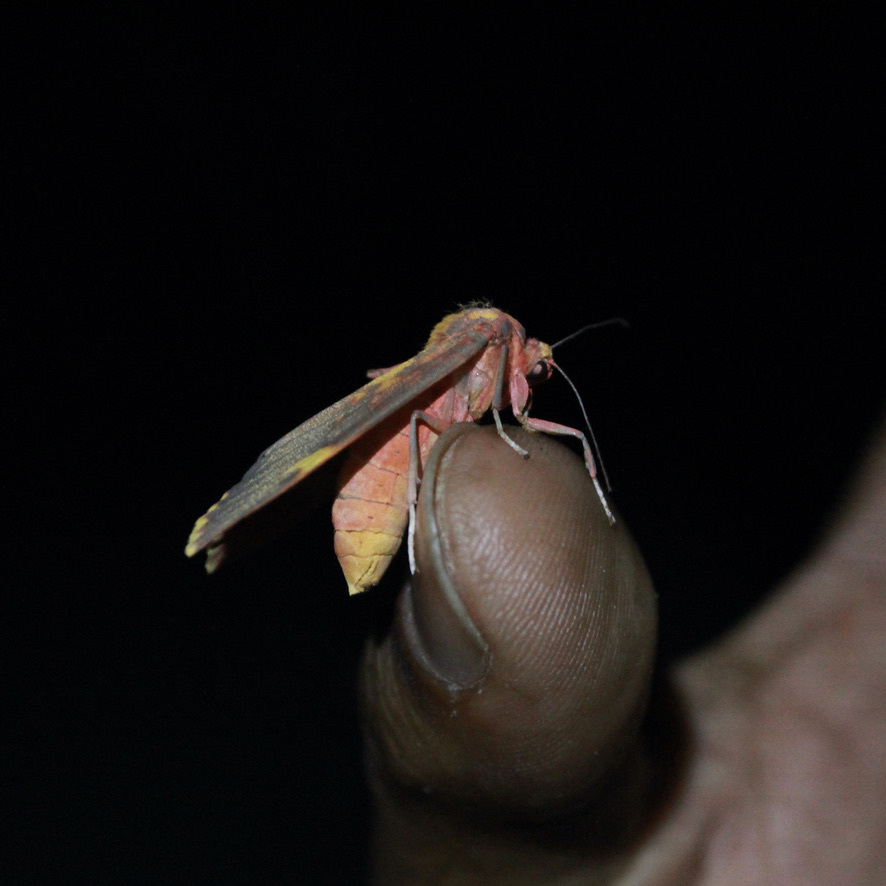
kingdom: Animalia
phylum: Arthropoda
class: Insecta
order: Lepidoptera
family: Erebidae
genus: Melese
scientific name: Melese laodamia
